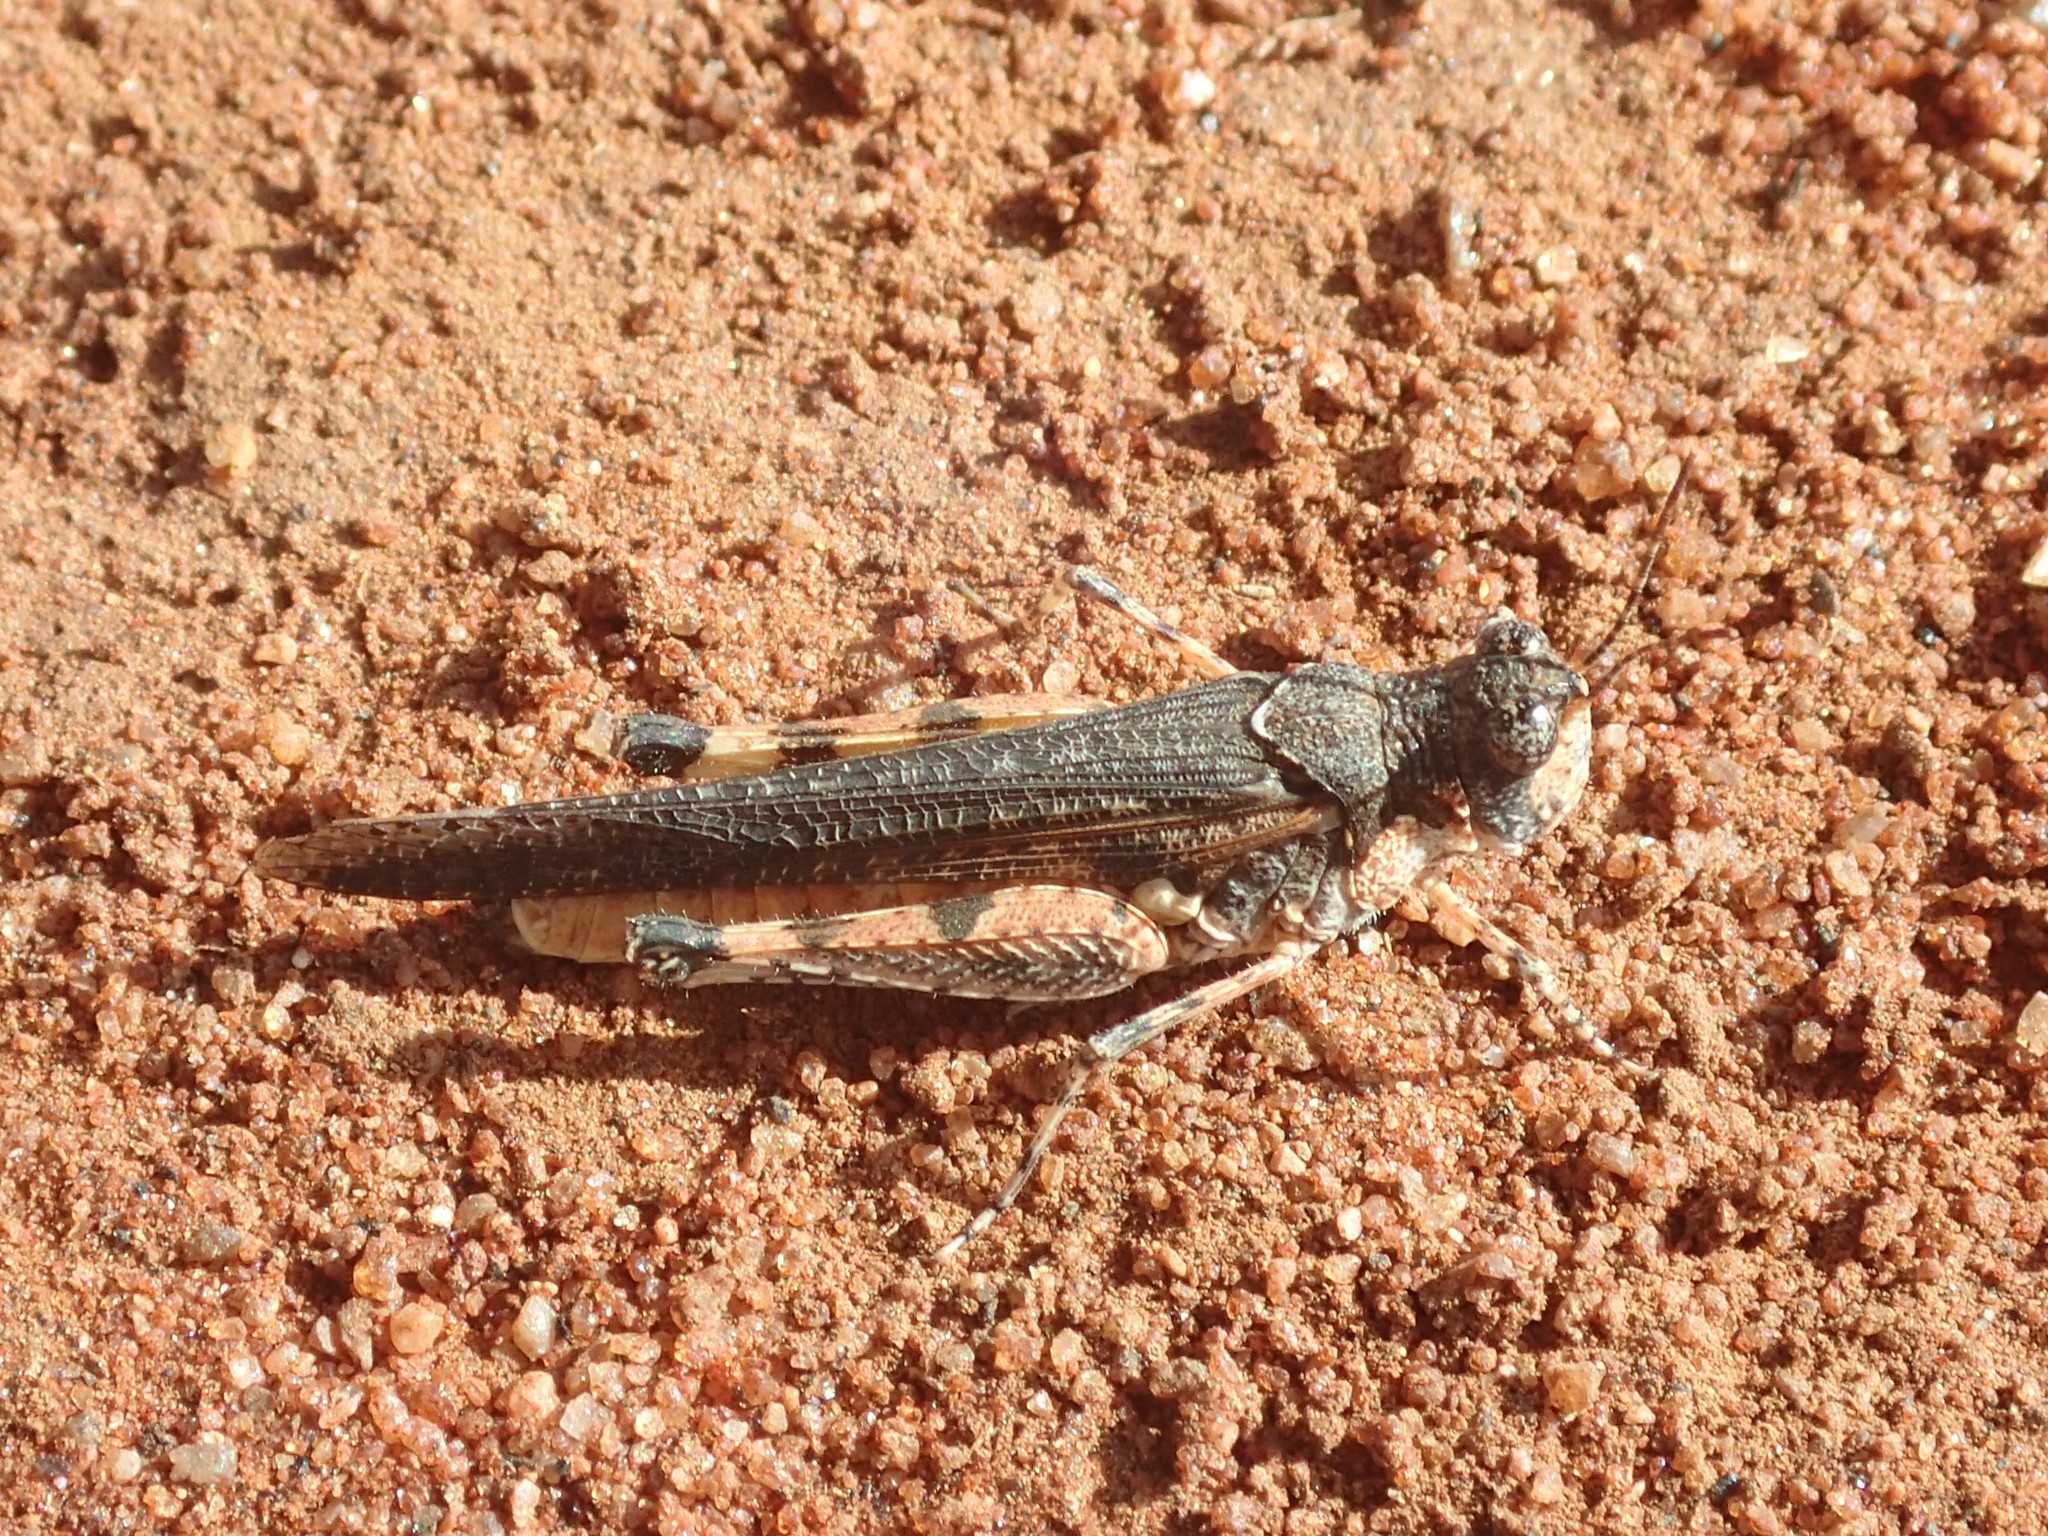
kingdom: Animalia
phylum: Arthropoda
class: Insecta
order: Orthoptera
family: Acrididae
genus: Pycnostictus
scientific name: Pycnostictus seriatus
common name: Common bandwing
